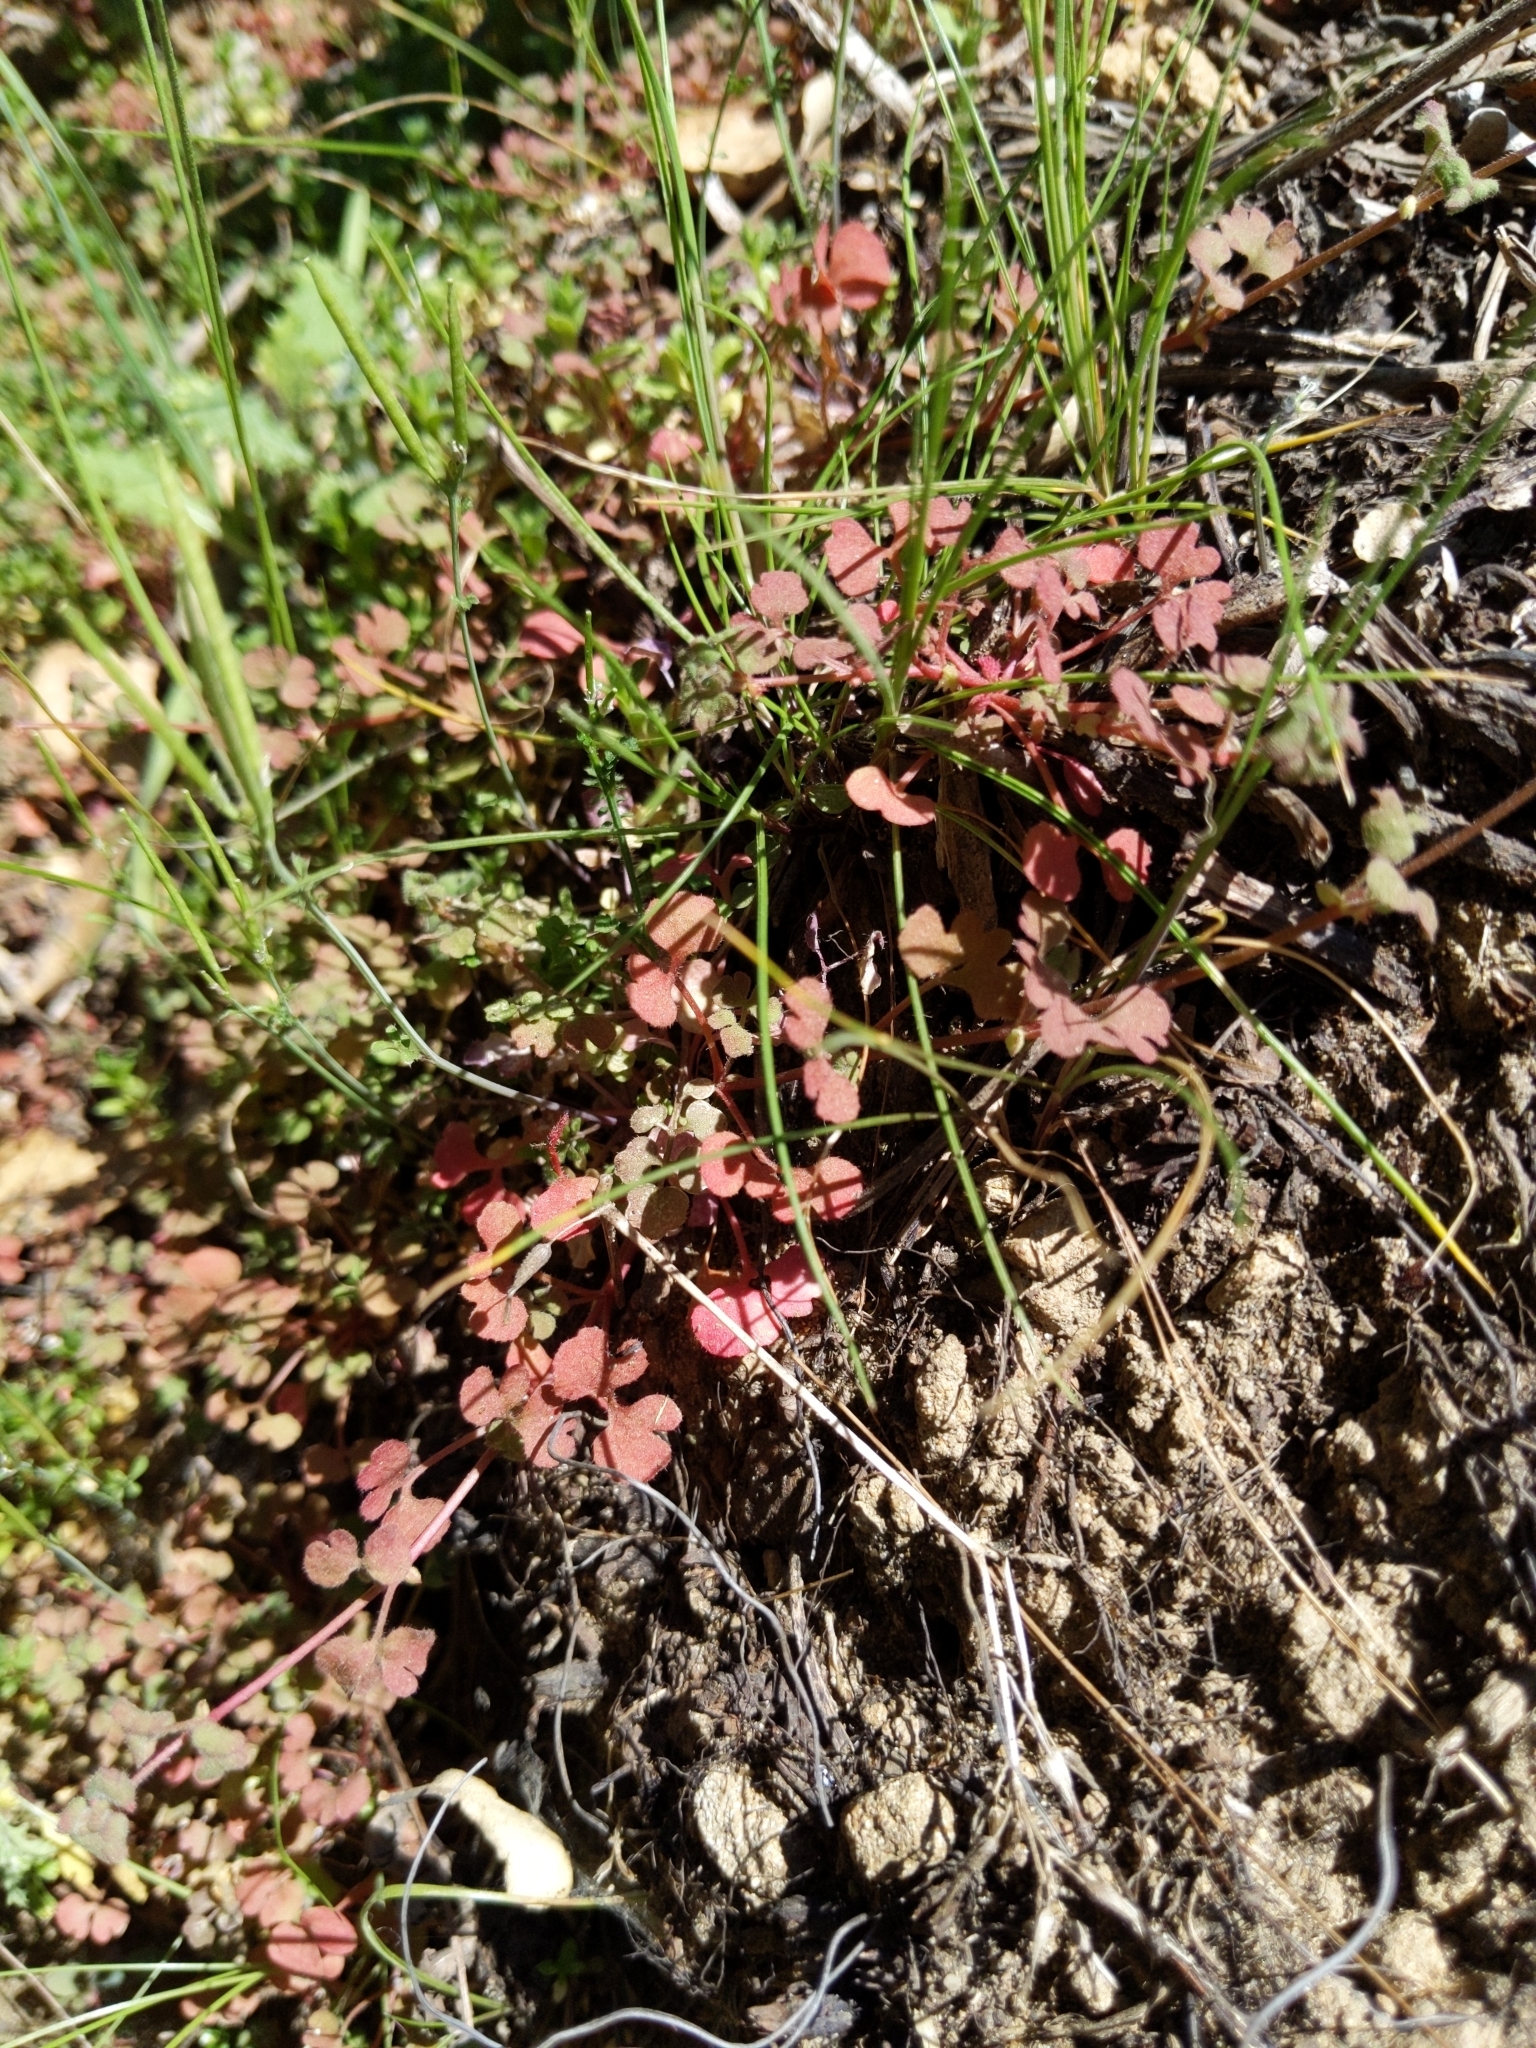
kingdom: Plantae
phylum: Tracheophyta
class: Magnoliopsida
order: Caryophyllales
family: Polygonaceae
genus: Pterostegia
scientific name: Pterostegia drymarioides
